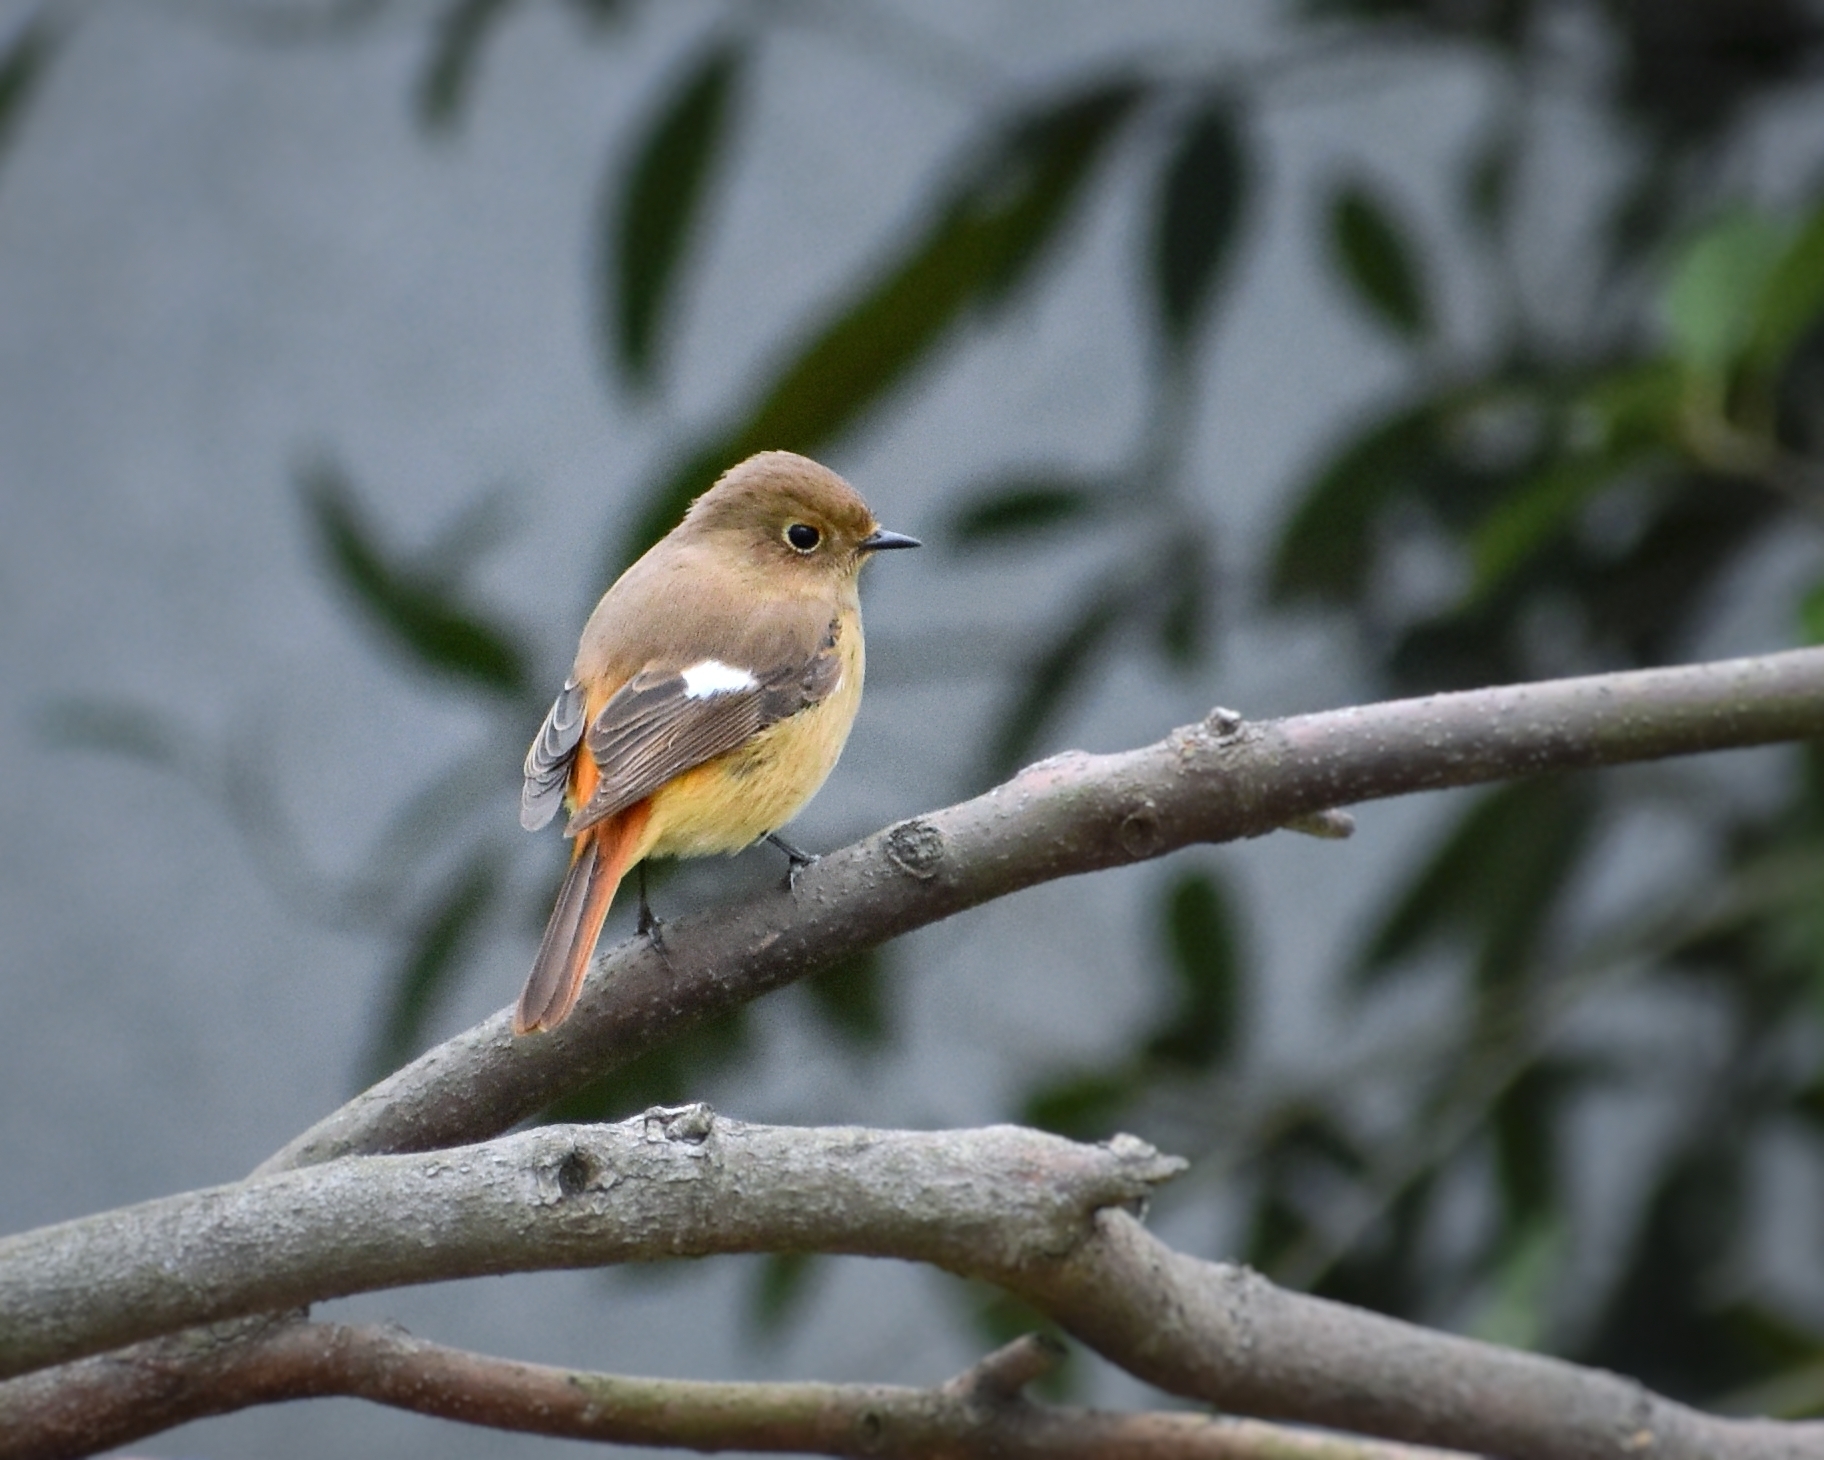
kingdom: Animalia
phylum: Chordata
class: Aves
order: Passeriformes
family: Muscicapidae
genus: Phoenicurus
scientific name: Phoenicurus auroreus
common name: Daurian redstart
